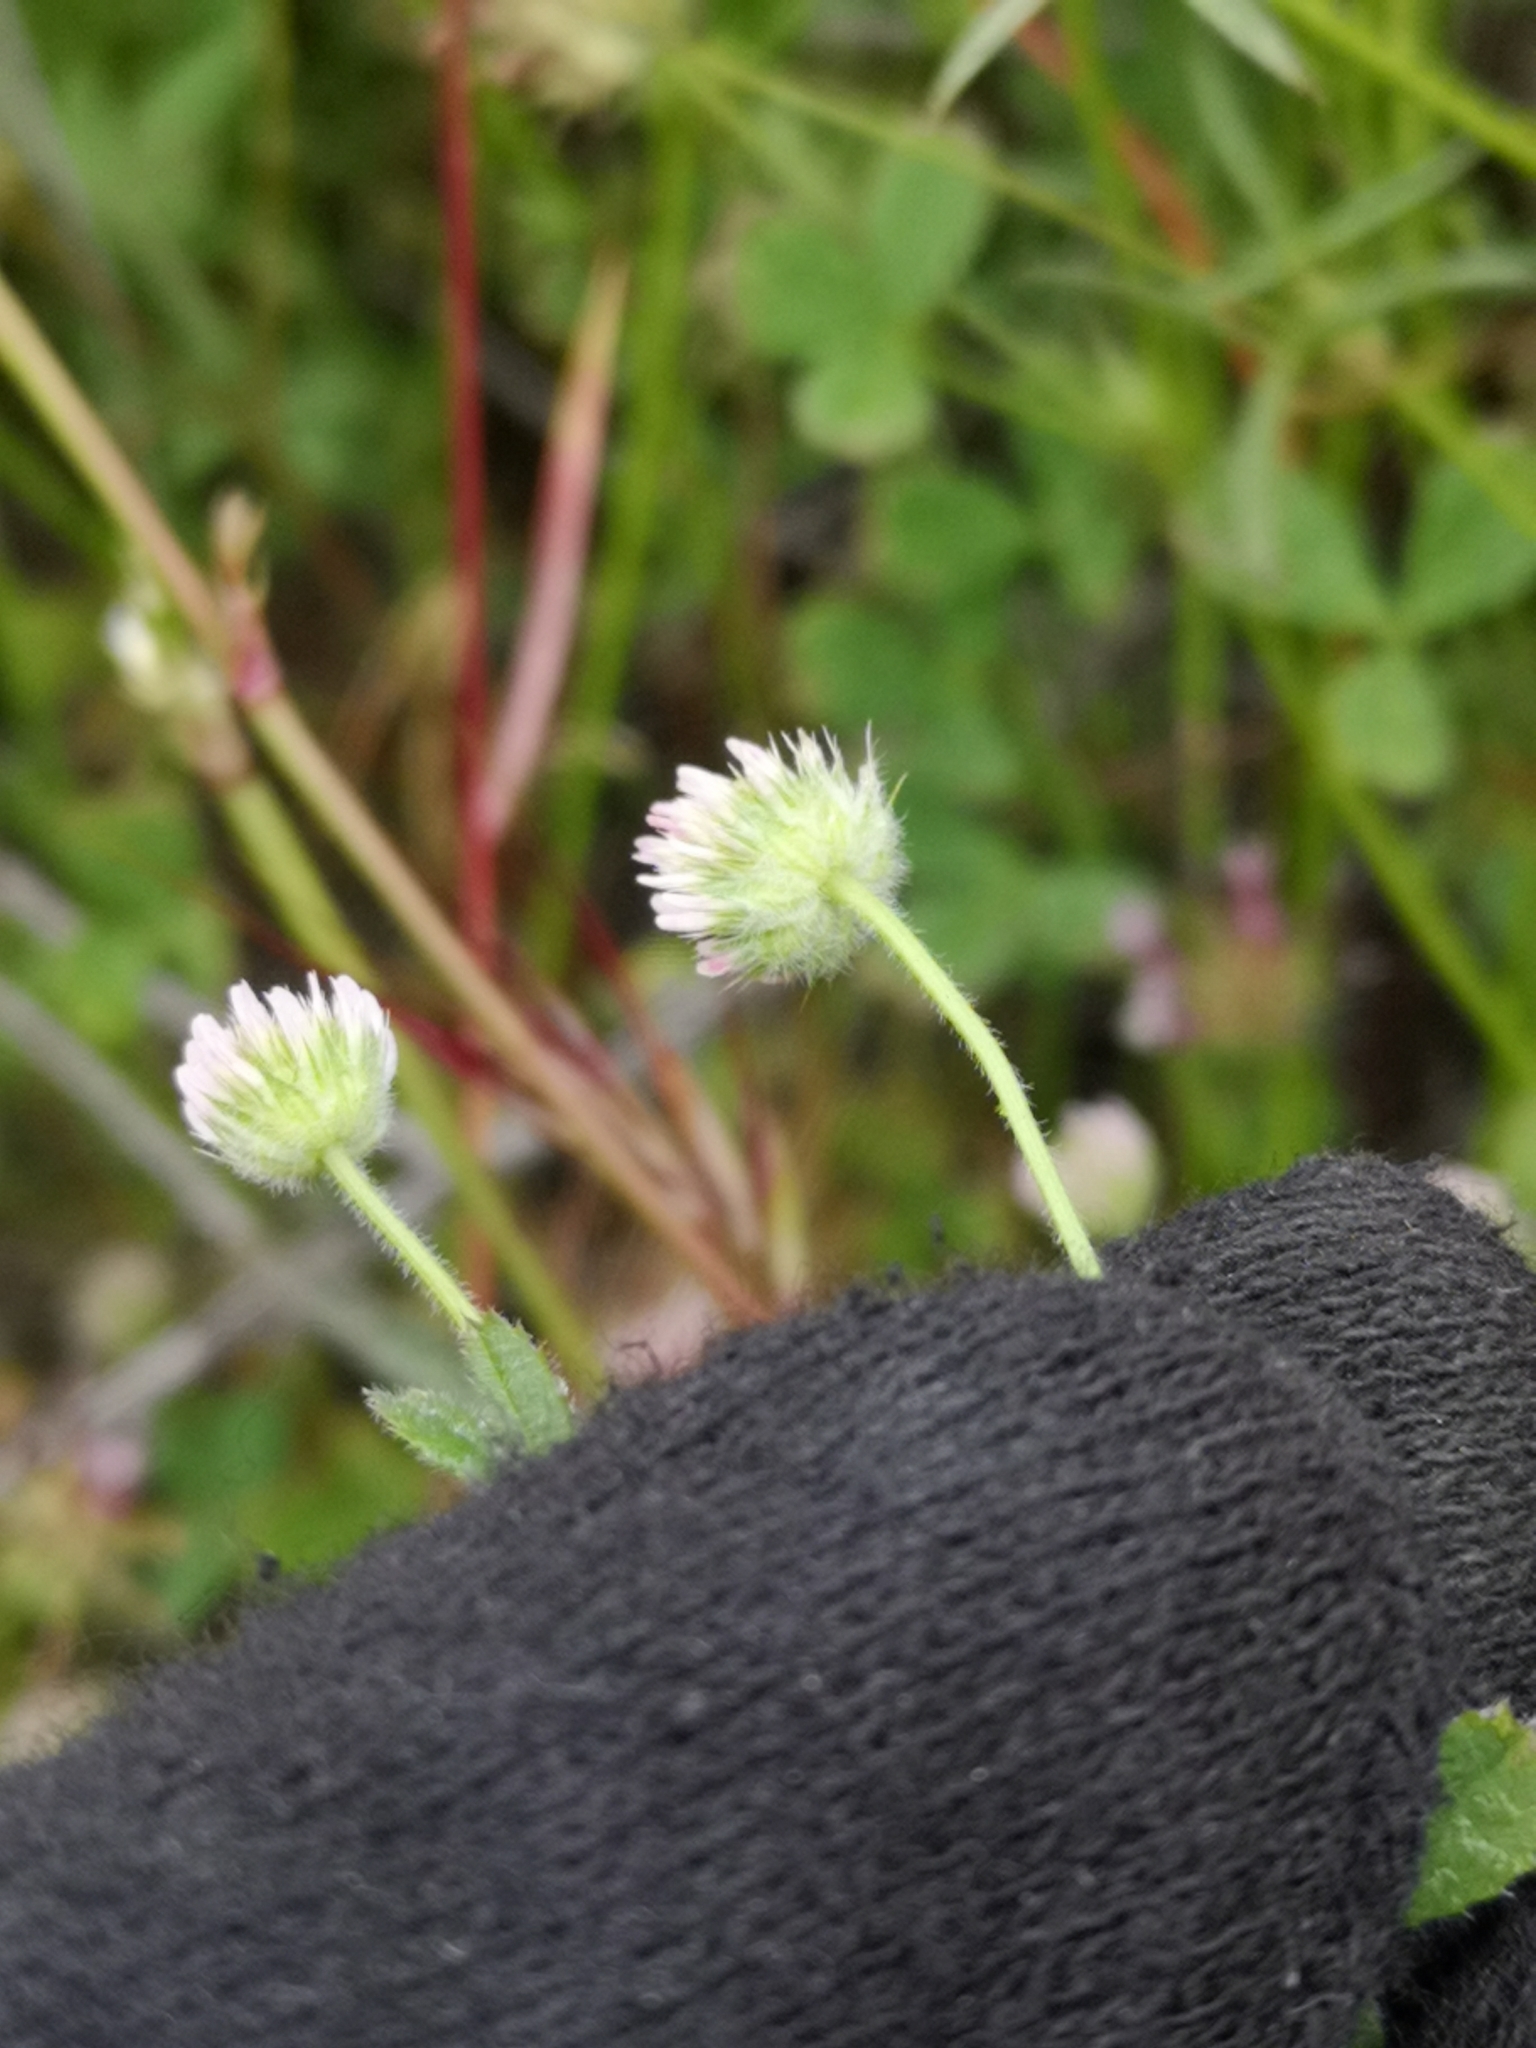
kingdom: Plantae
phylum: Tracheophyta
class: Magnoliopsida
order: Fabales
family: Fabaceae
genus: Trifolium
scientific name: Trifolium microcephalum
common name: Maiden clover
